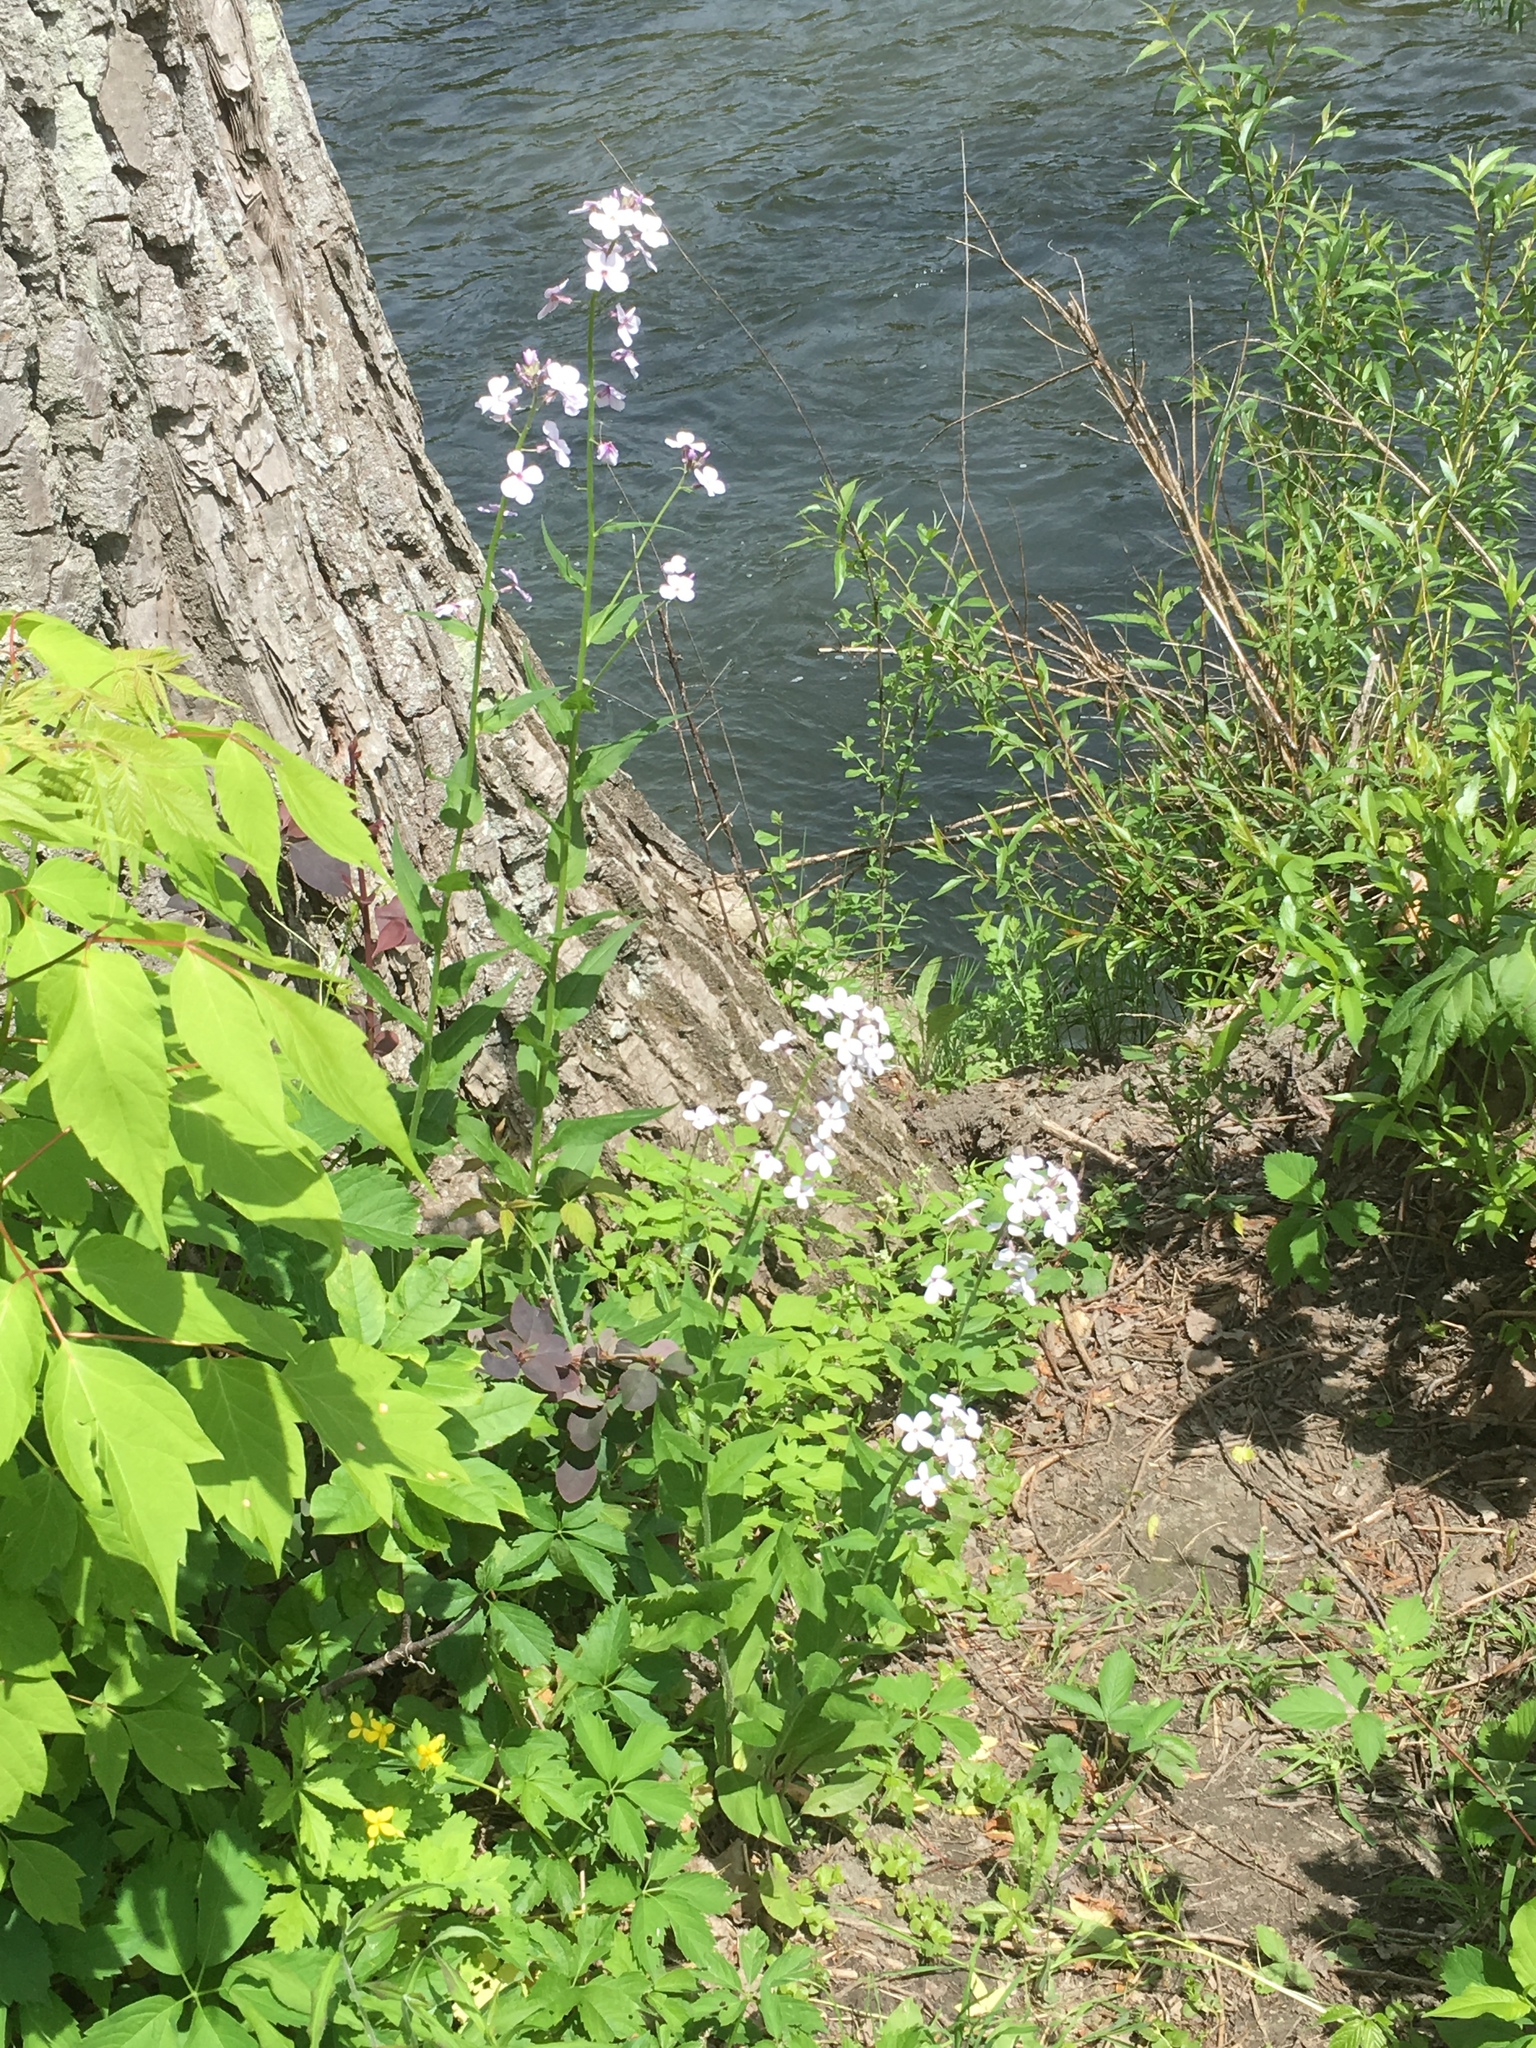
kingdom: Plantae
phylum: Tracheophyta
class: Magnoliopsida
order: Brassicales
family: Brassicaceae
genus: Hesperis
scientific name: Hesperis matronalis
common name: Dame's-violet
